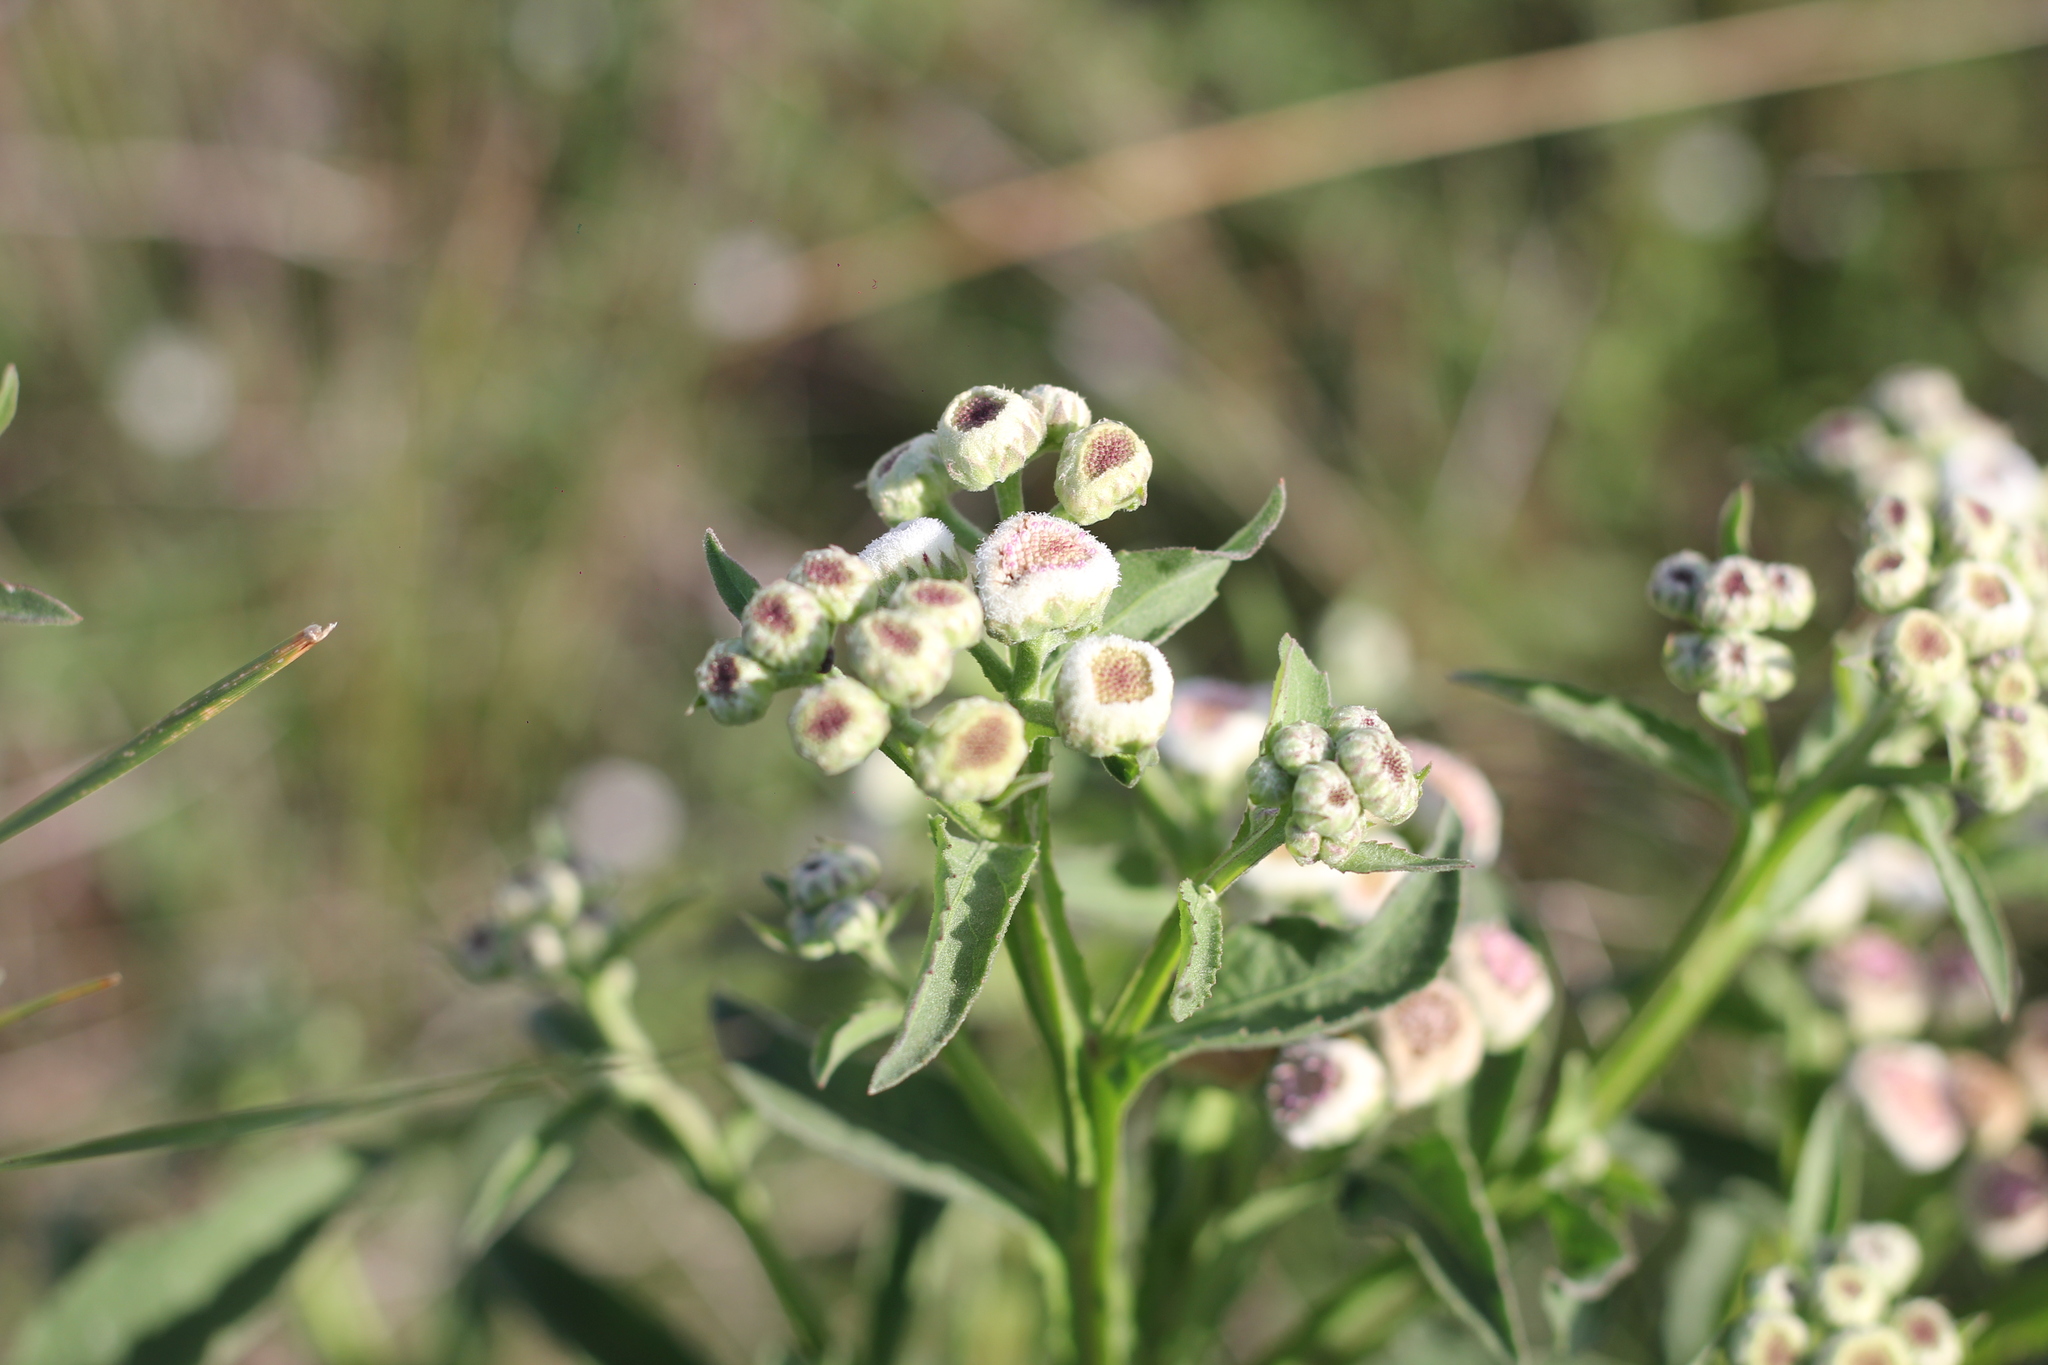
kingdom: Plantae
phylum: Tracheophyta
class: Magnoliopsida
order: Asterales
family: Asteraceae
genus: Pluchea
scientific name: Pluchea sagittalis
